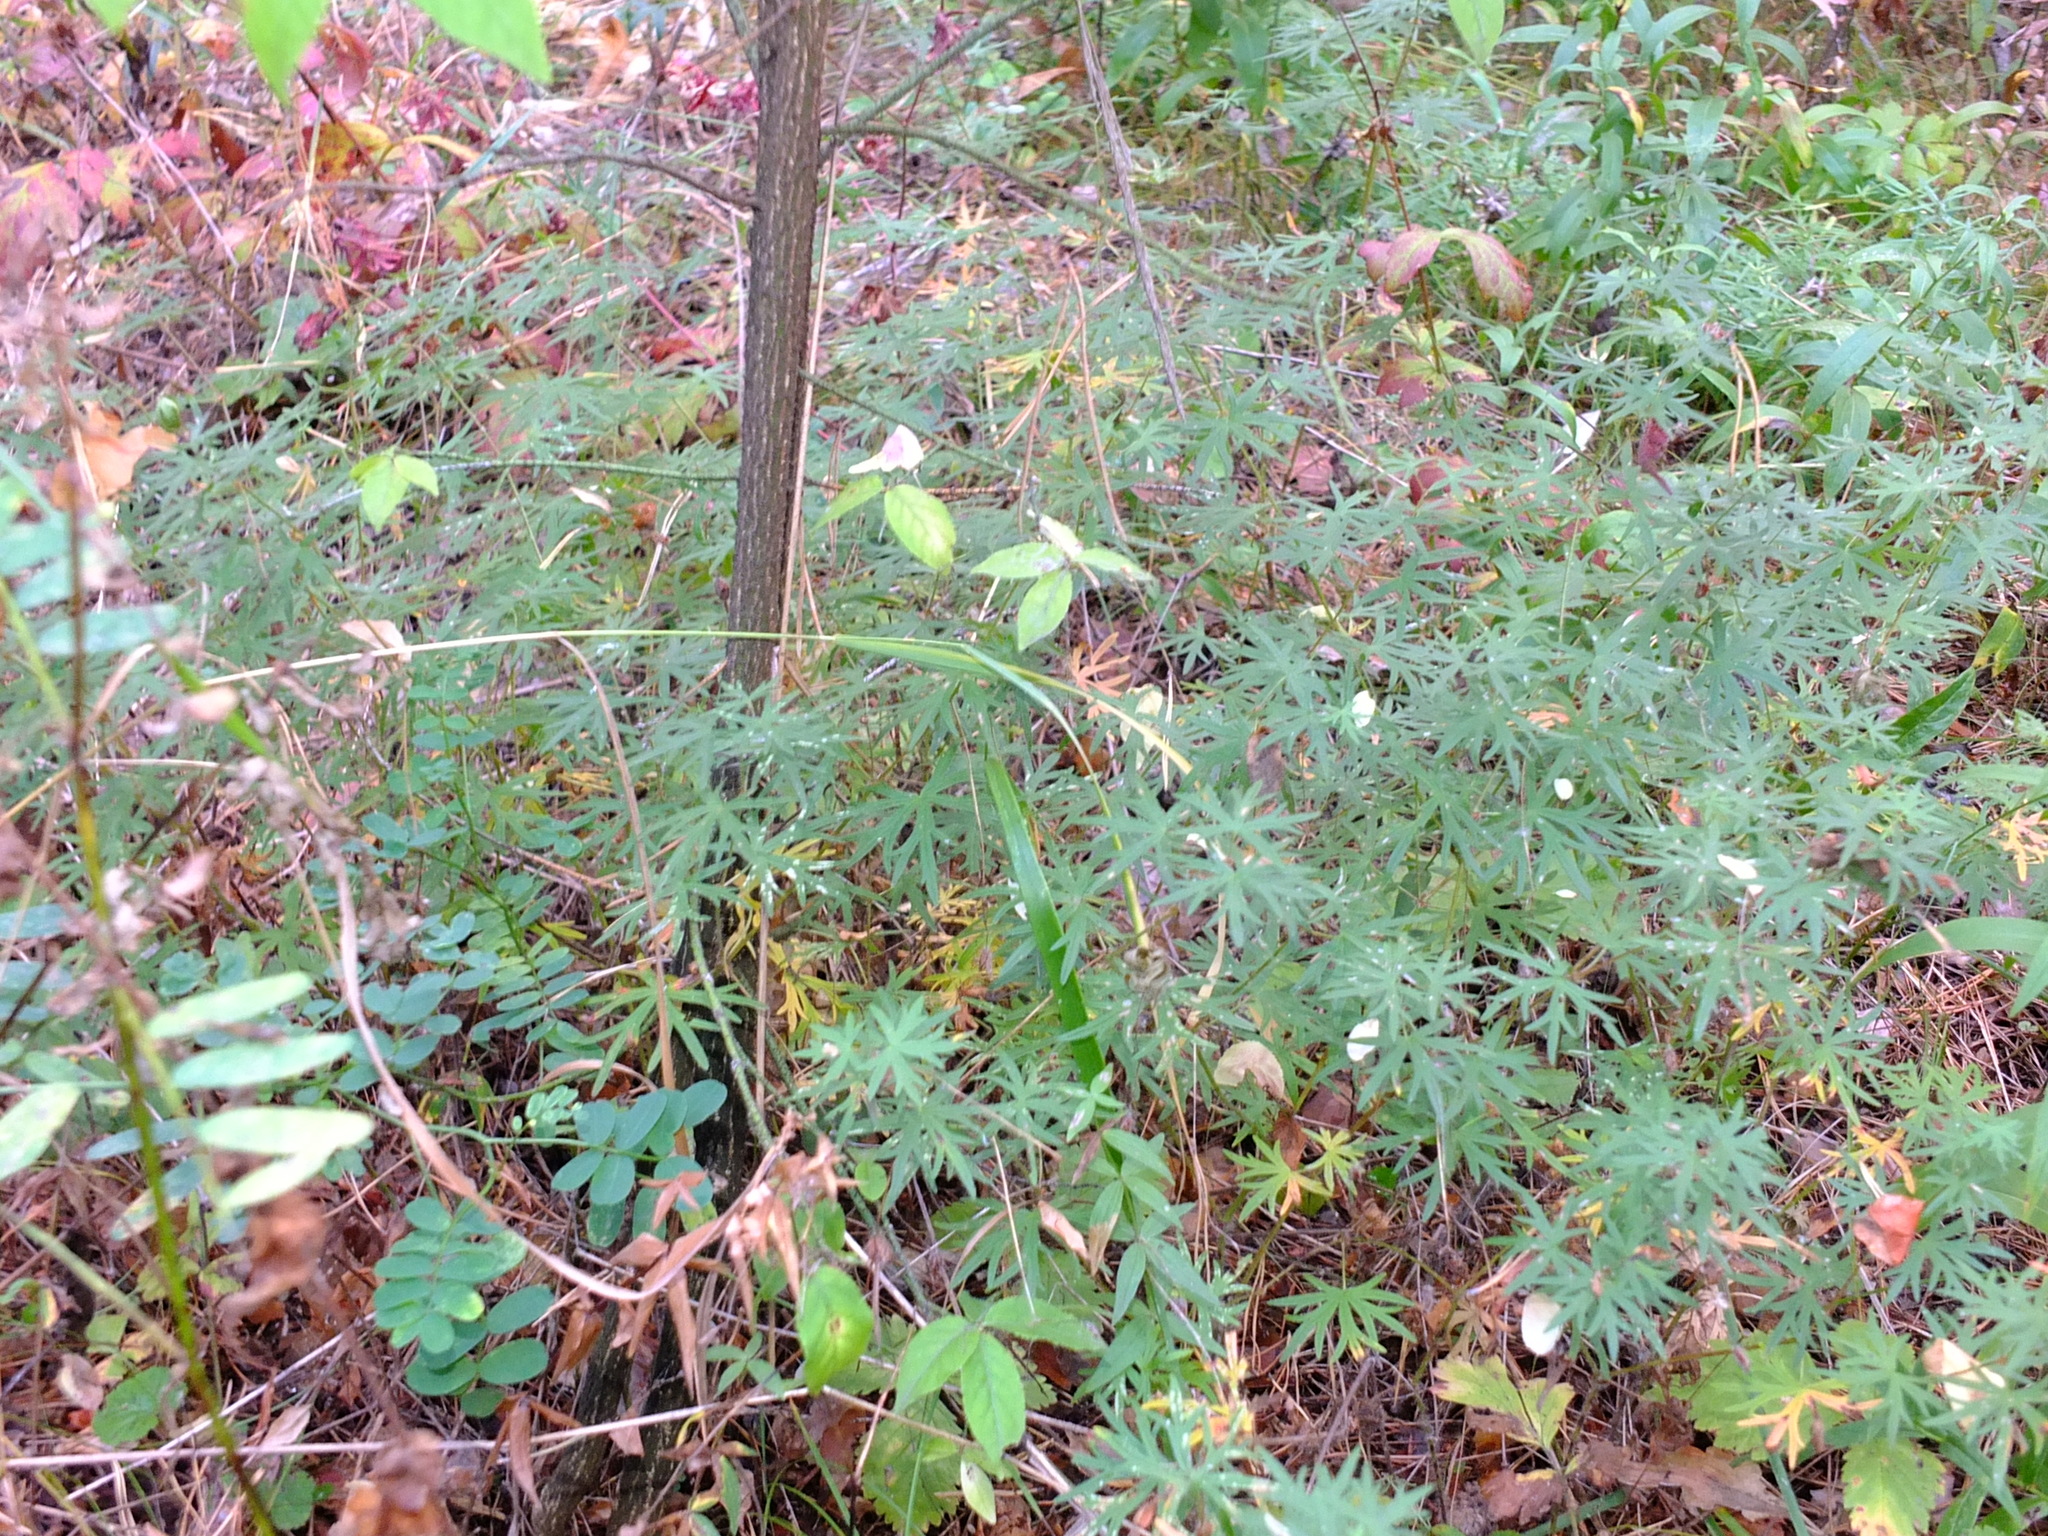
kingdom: Plantae
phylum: Tracheophyta
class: Magnoliopsida
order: Geraniales
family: Geraniaceae
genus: Geranium
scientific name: Geranium sanguineum
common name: Bloody crane's-bill
